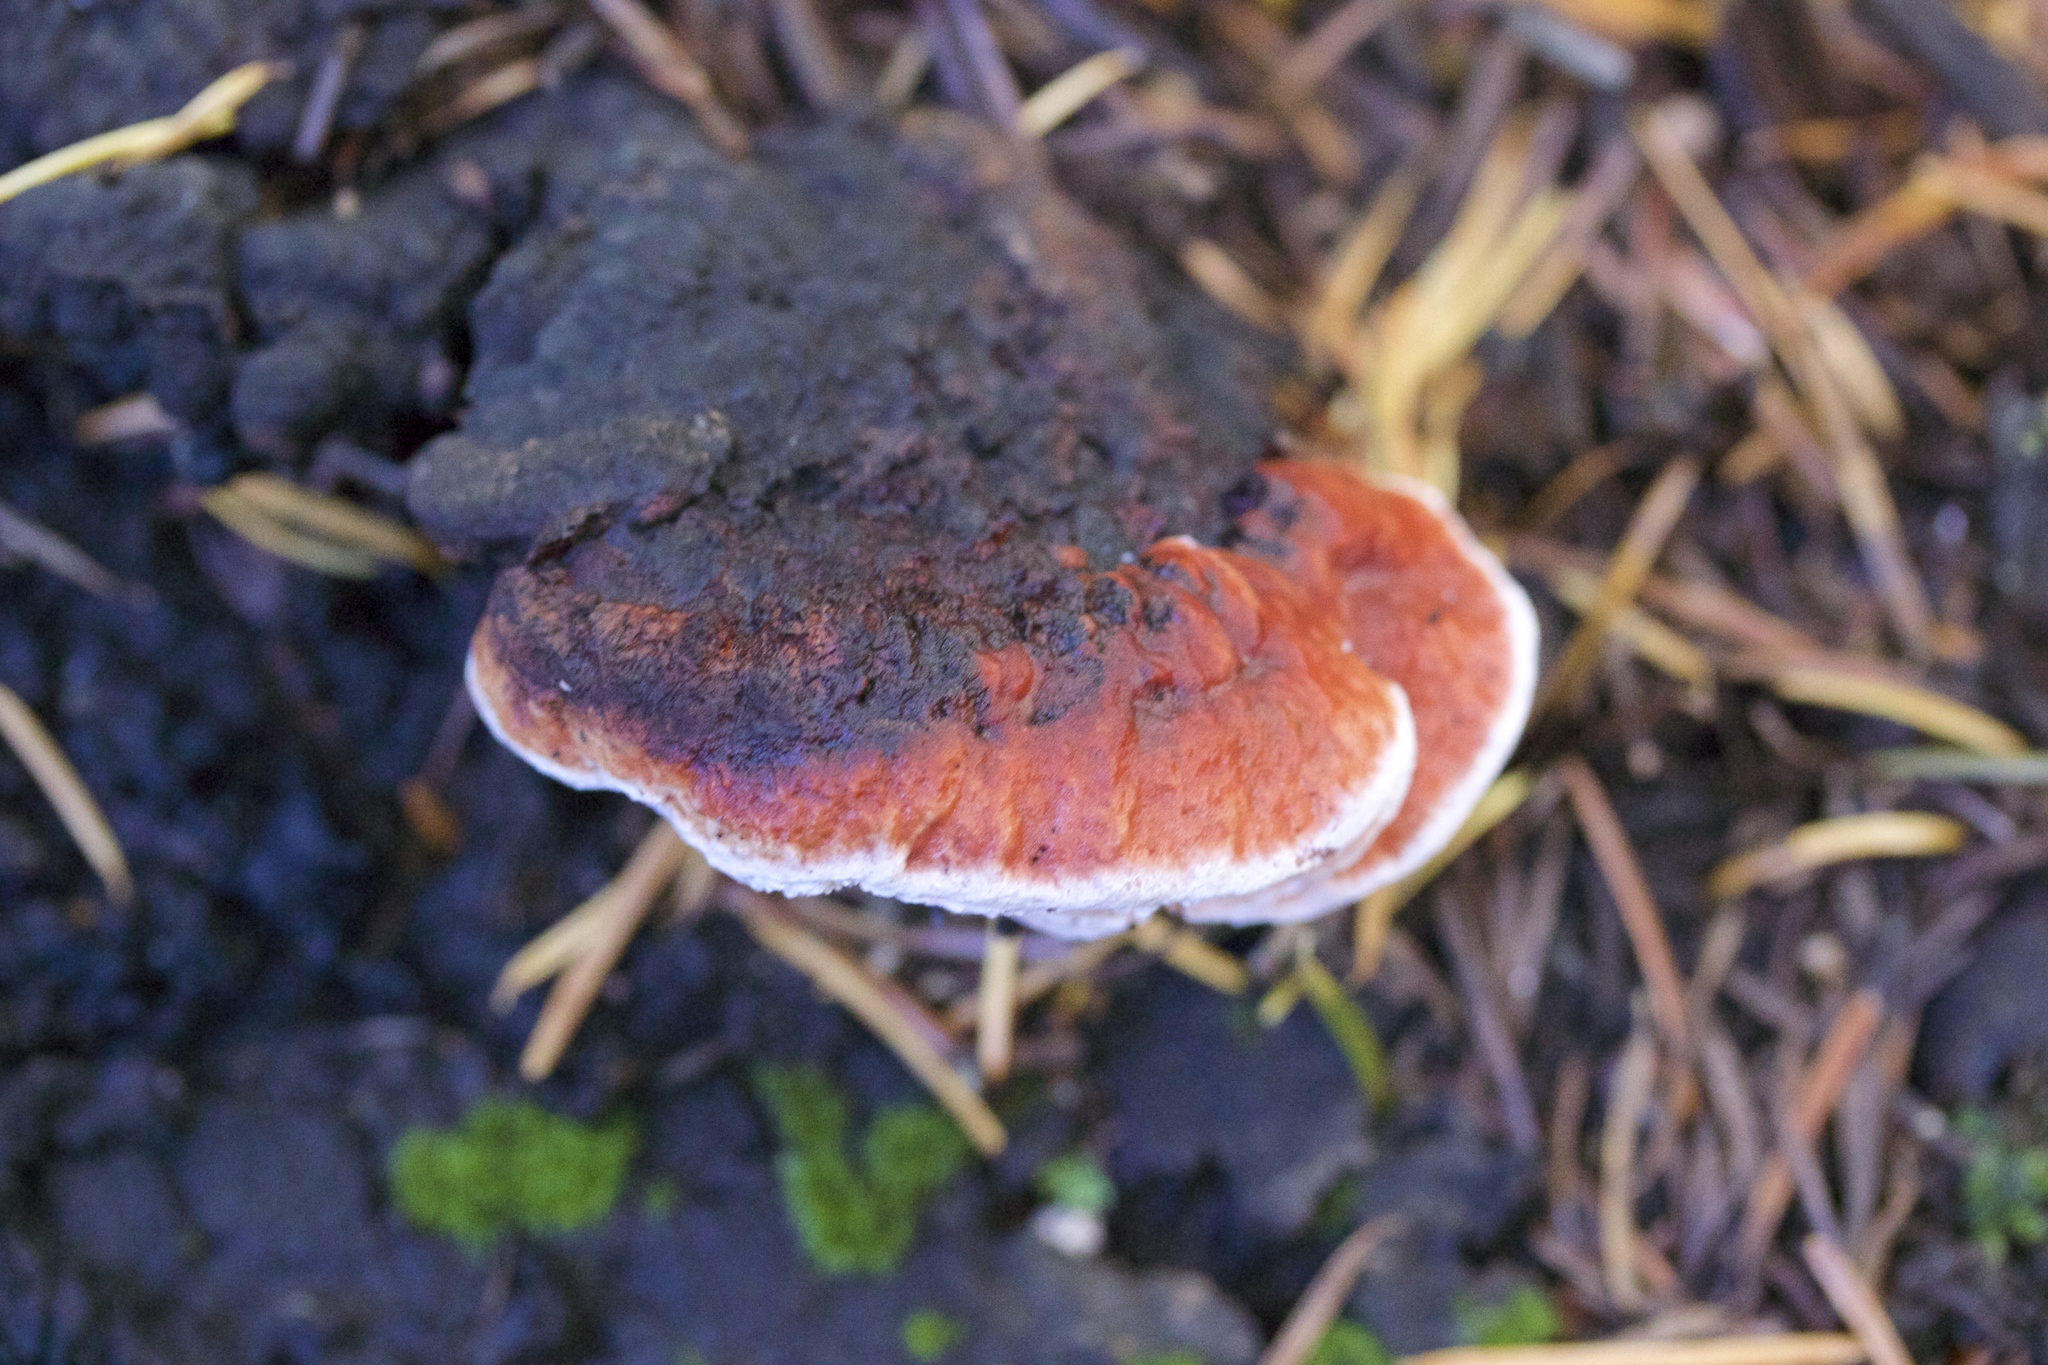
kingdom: Fungi
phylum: Basidiomycota
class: Agaricomycetes
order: Polyporales
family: Fomitopsidaceae
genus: Rhodofomes
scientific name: Rhodofomes cajanderi
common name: Rosy conk
